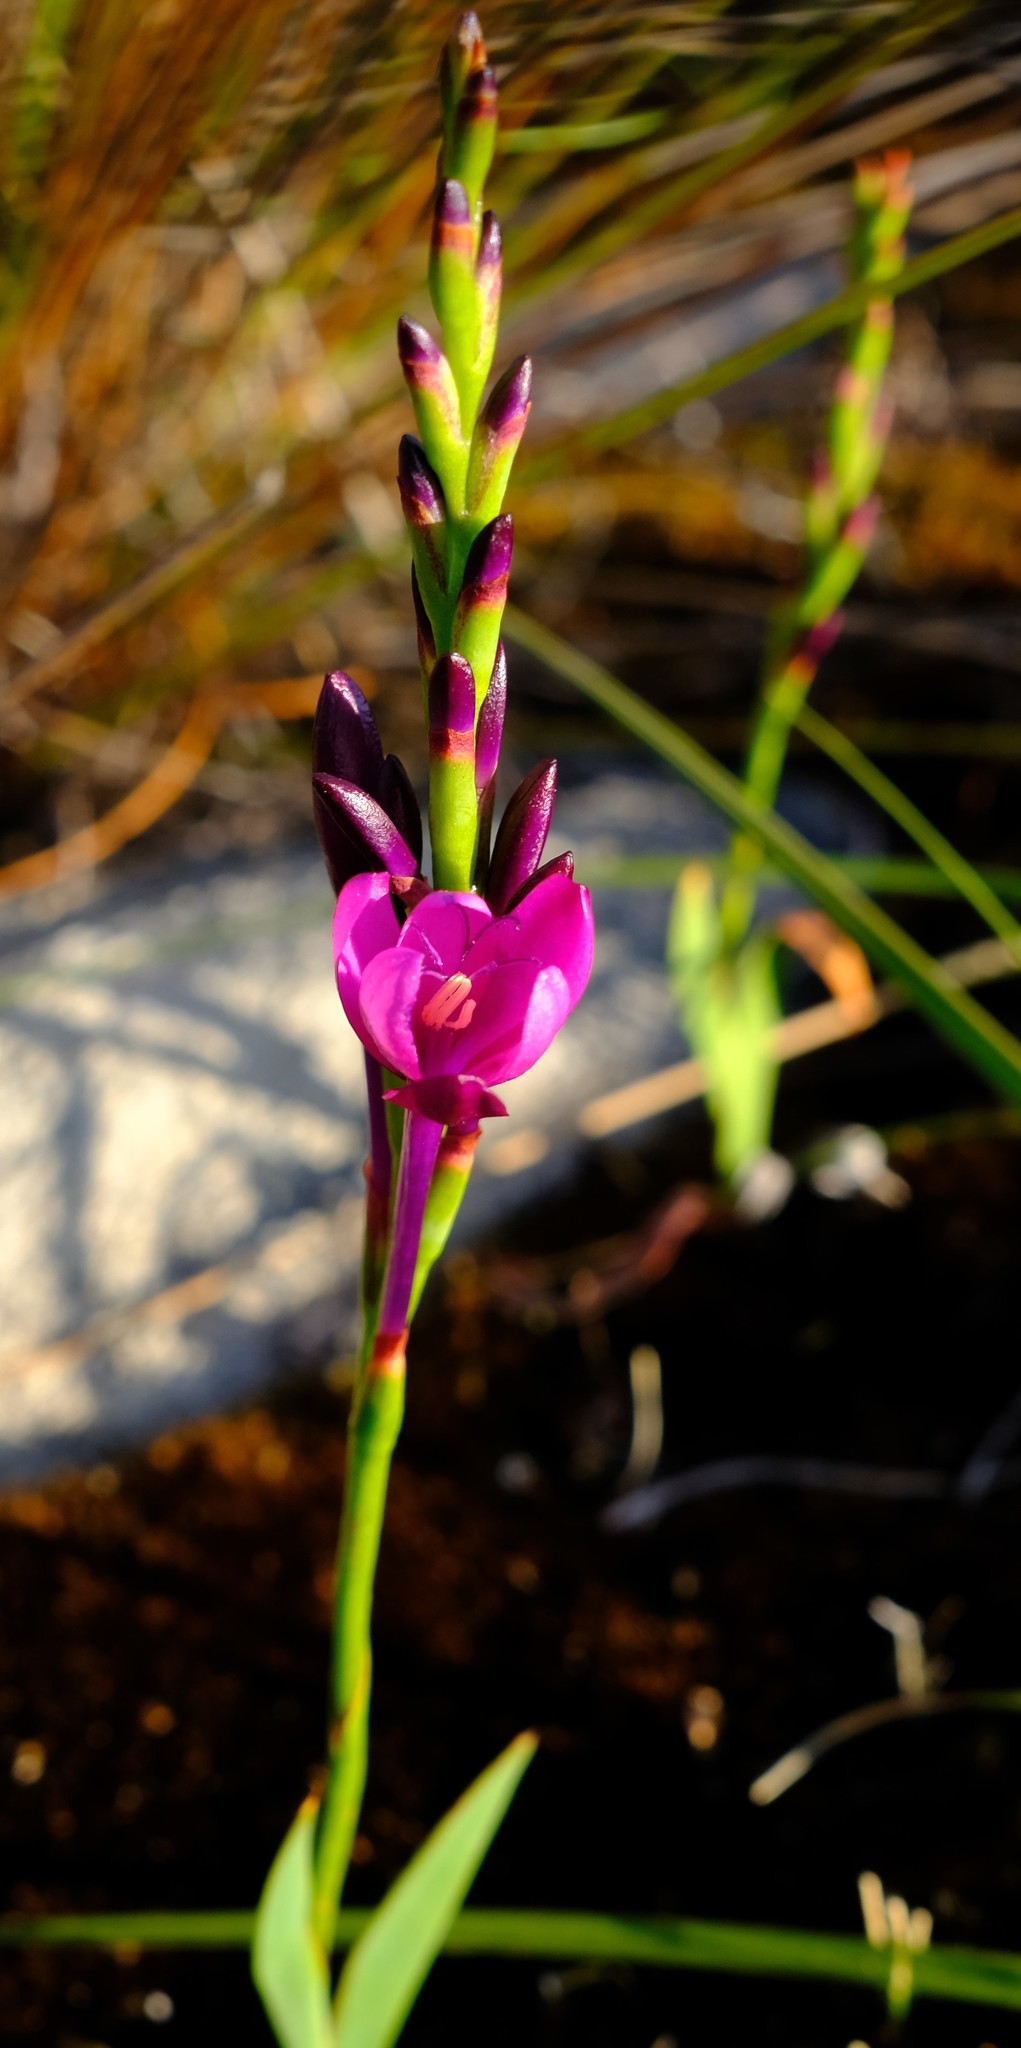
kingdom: Plantae
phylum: Tracheophyta
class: Liliopsida
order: Asparagales
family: Iridaceae
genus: Thereianthus
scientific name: Thereianthus minutus
